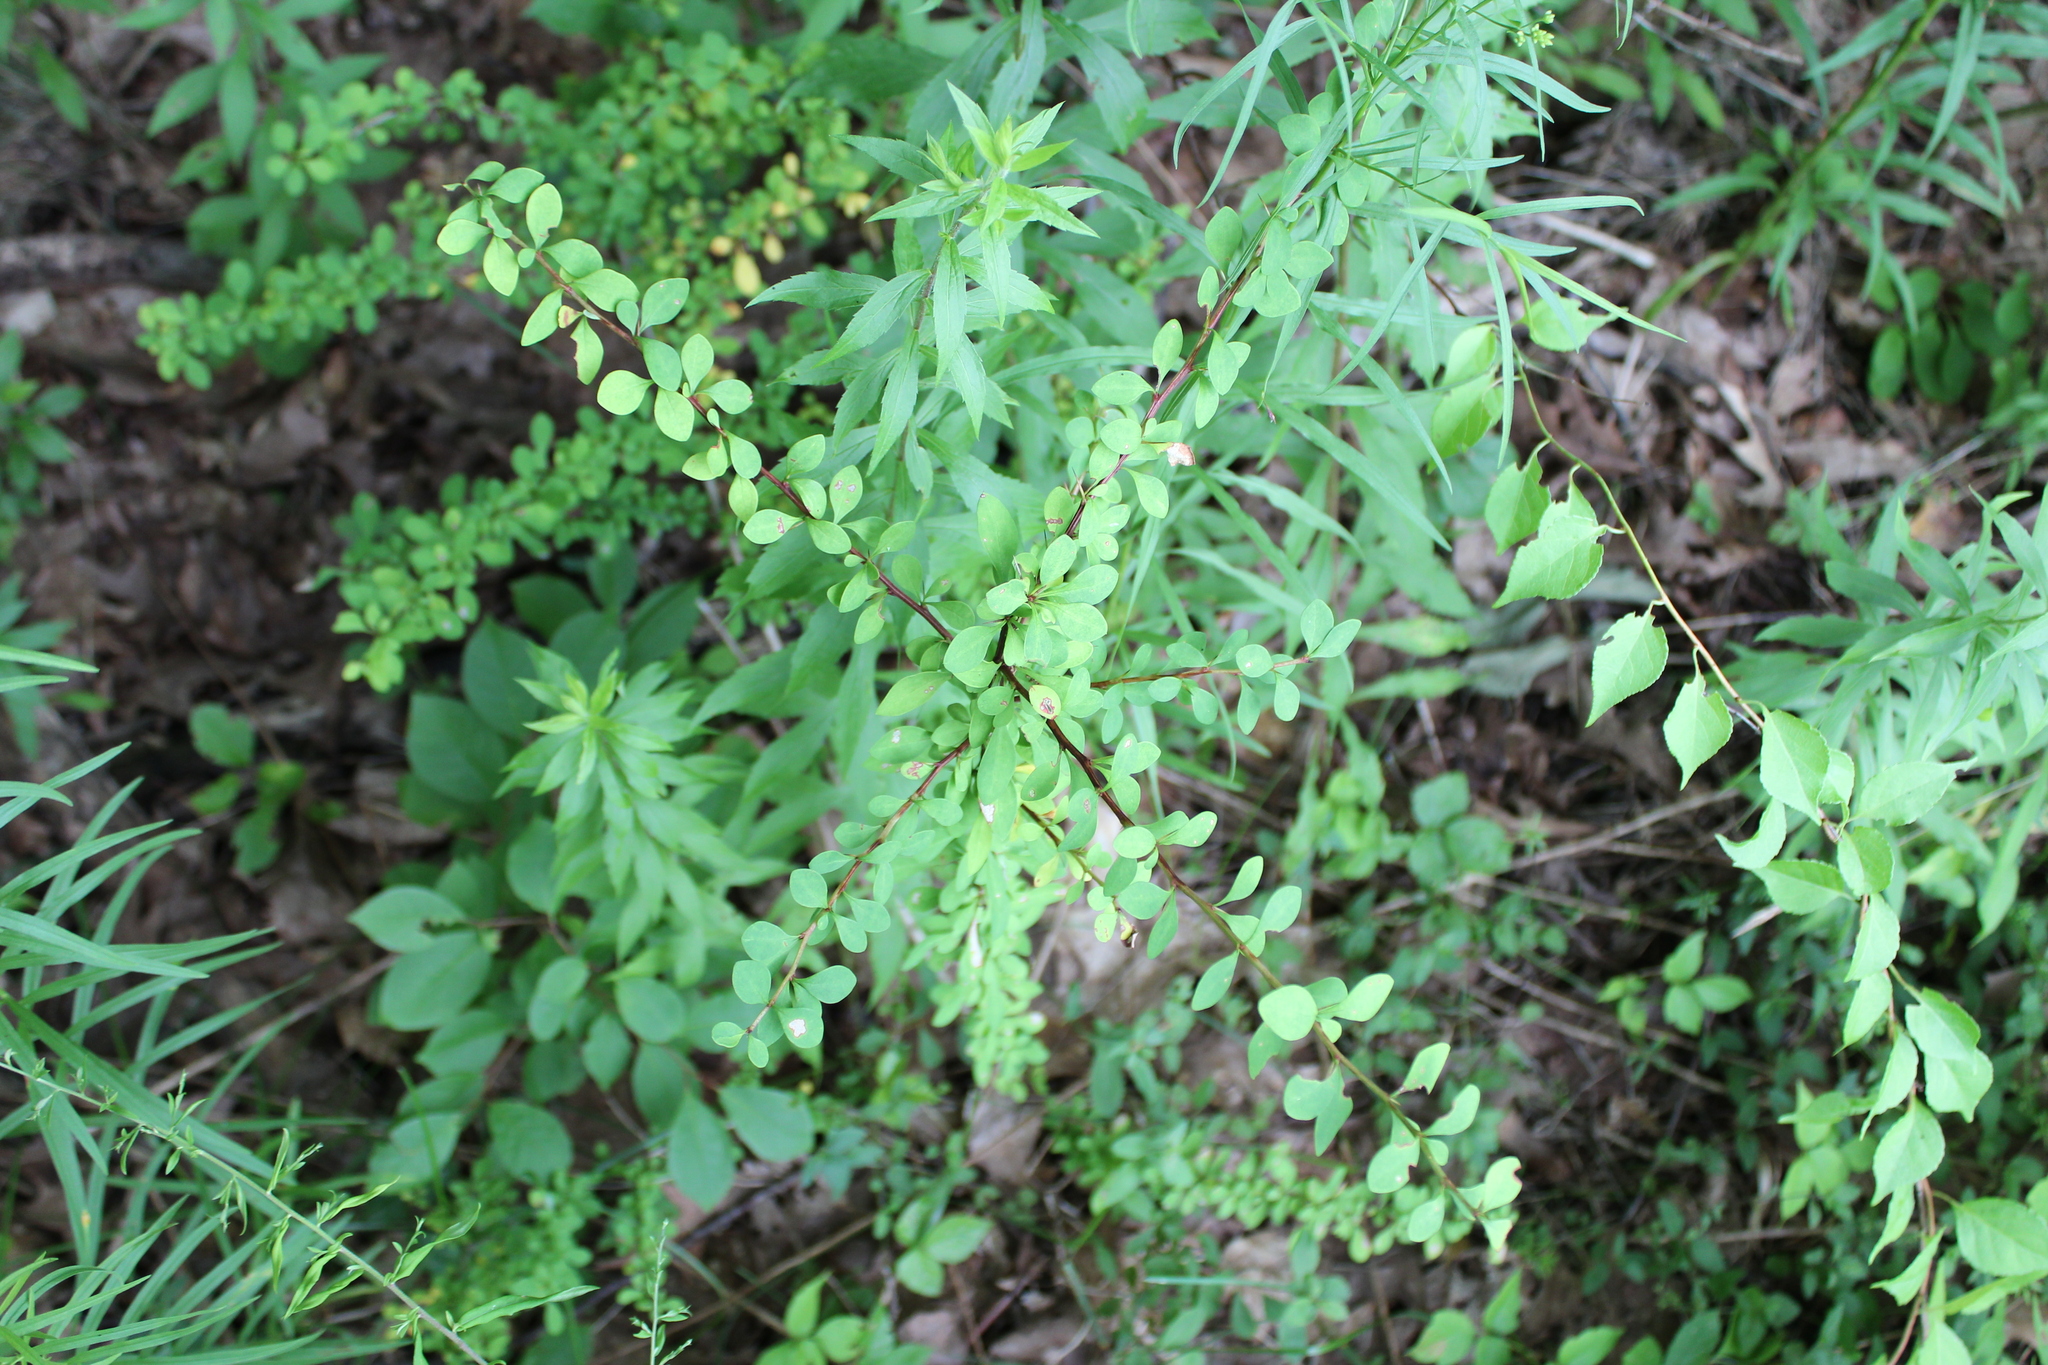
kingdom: Plantae
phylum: Tracheophyta
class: Magnoliopsida
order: Ranunculales
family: Berberidaceae
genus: Berberis
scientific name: Berberis thunbergii
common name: Japanese barberry
